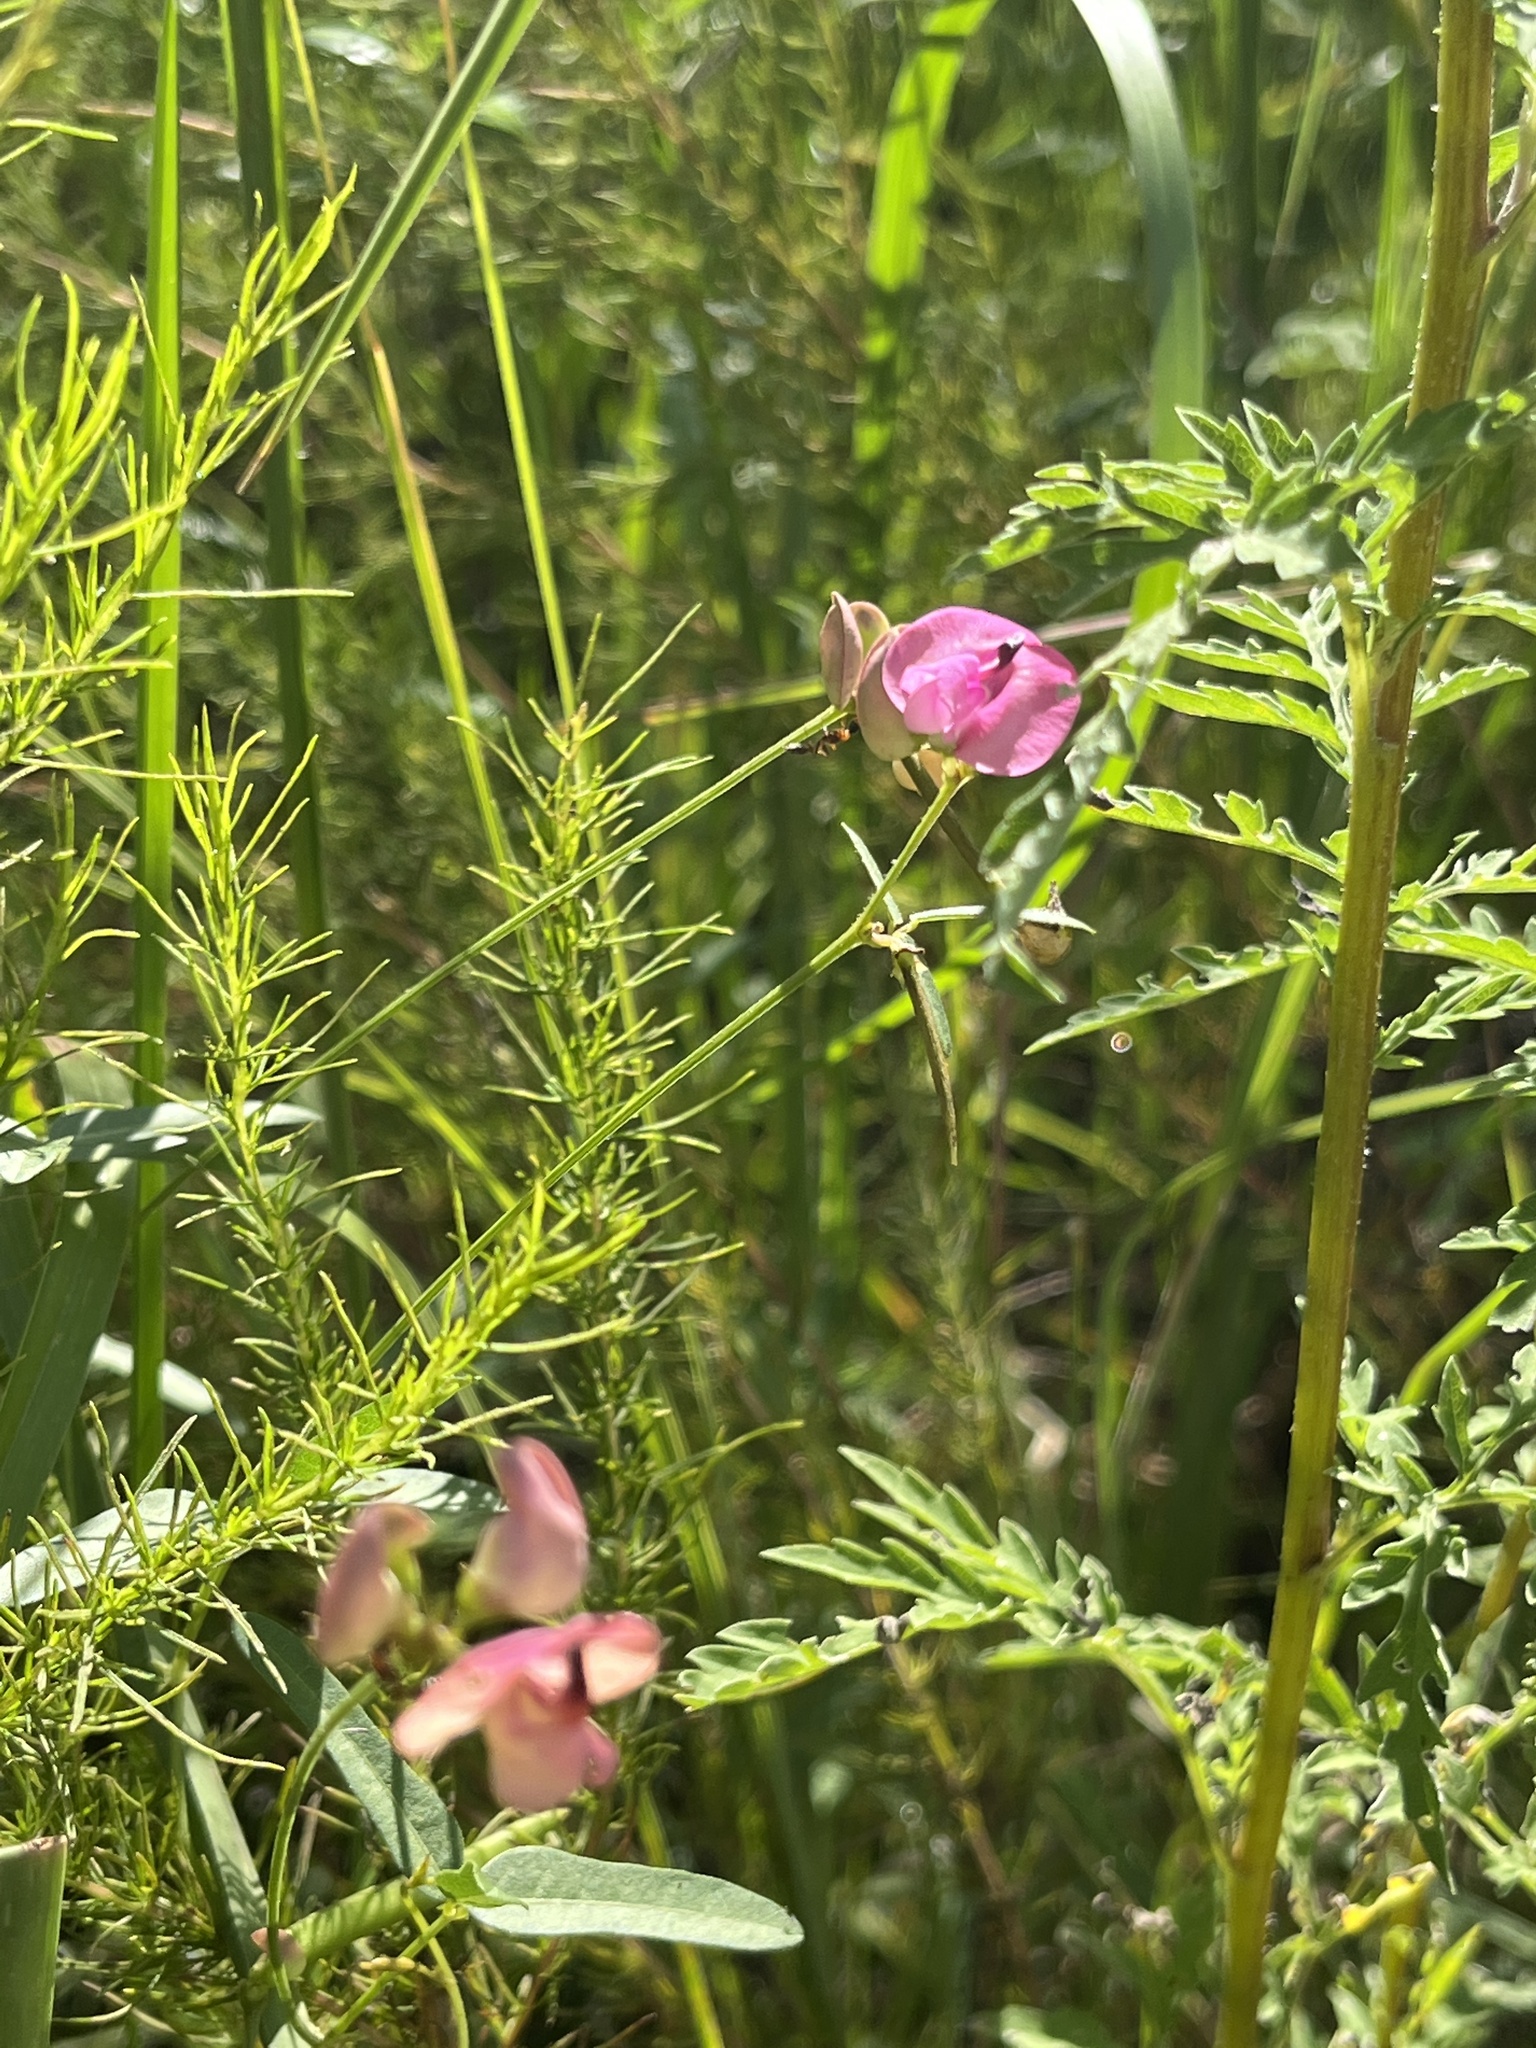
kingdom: Plantae
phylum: Tracheophyta
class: Magnoliopsida
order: Fabales
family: Fabaceae
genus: Strophostyles
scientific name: Strophostyles umbellata
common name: Perennial wild bean
